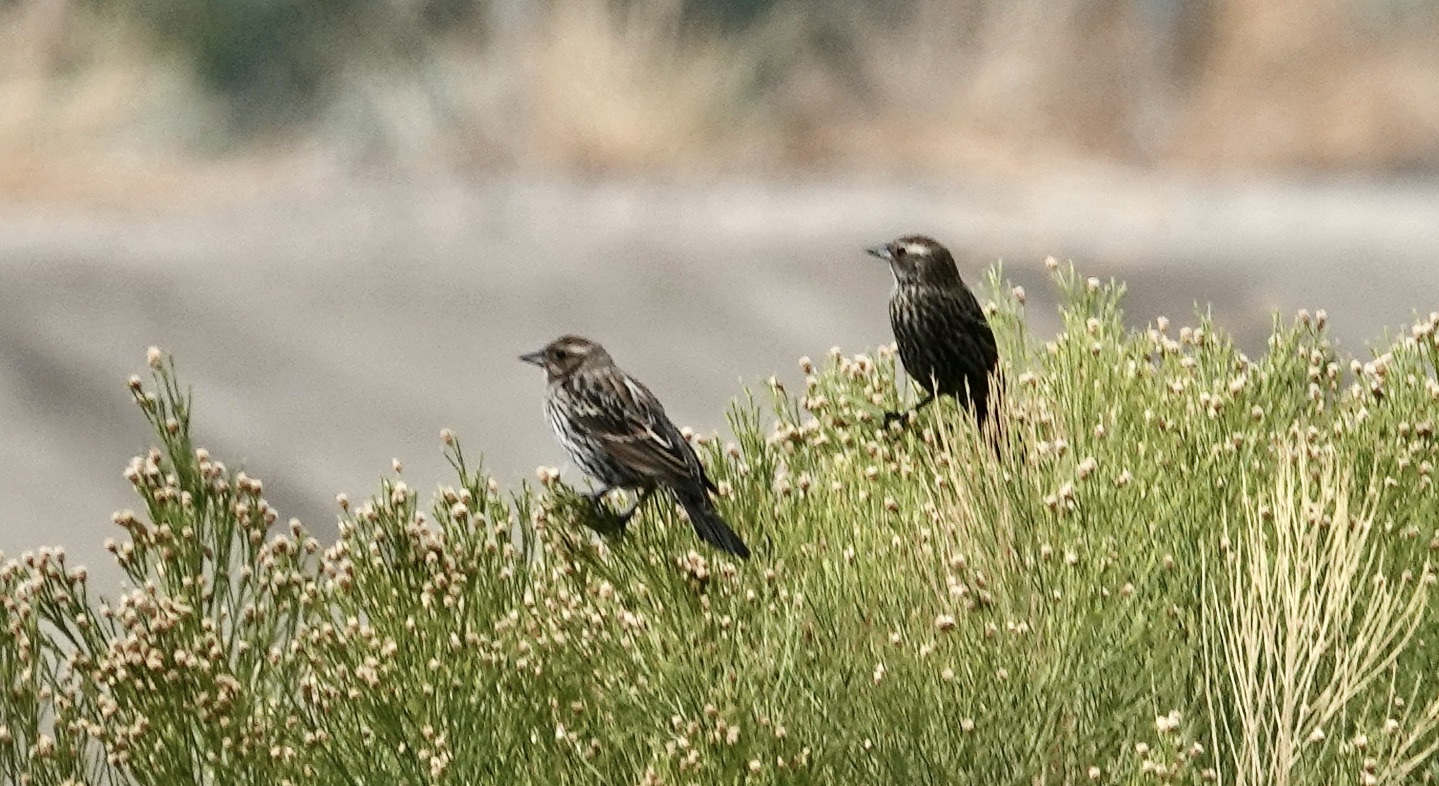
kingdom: Animalia
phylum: Chordata
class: Aves
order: Passeriformes
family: Icteridae
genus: Agelaius
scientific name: Agelaius phoeniceus
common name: Red-winged blackbird
